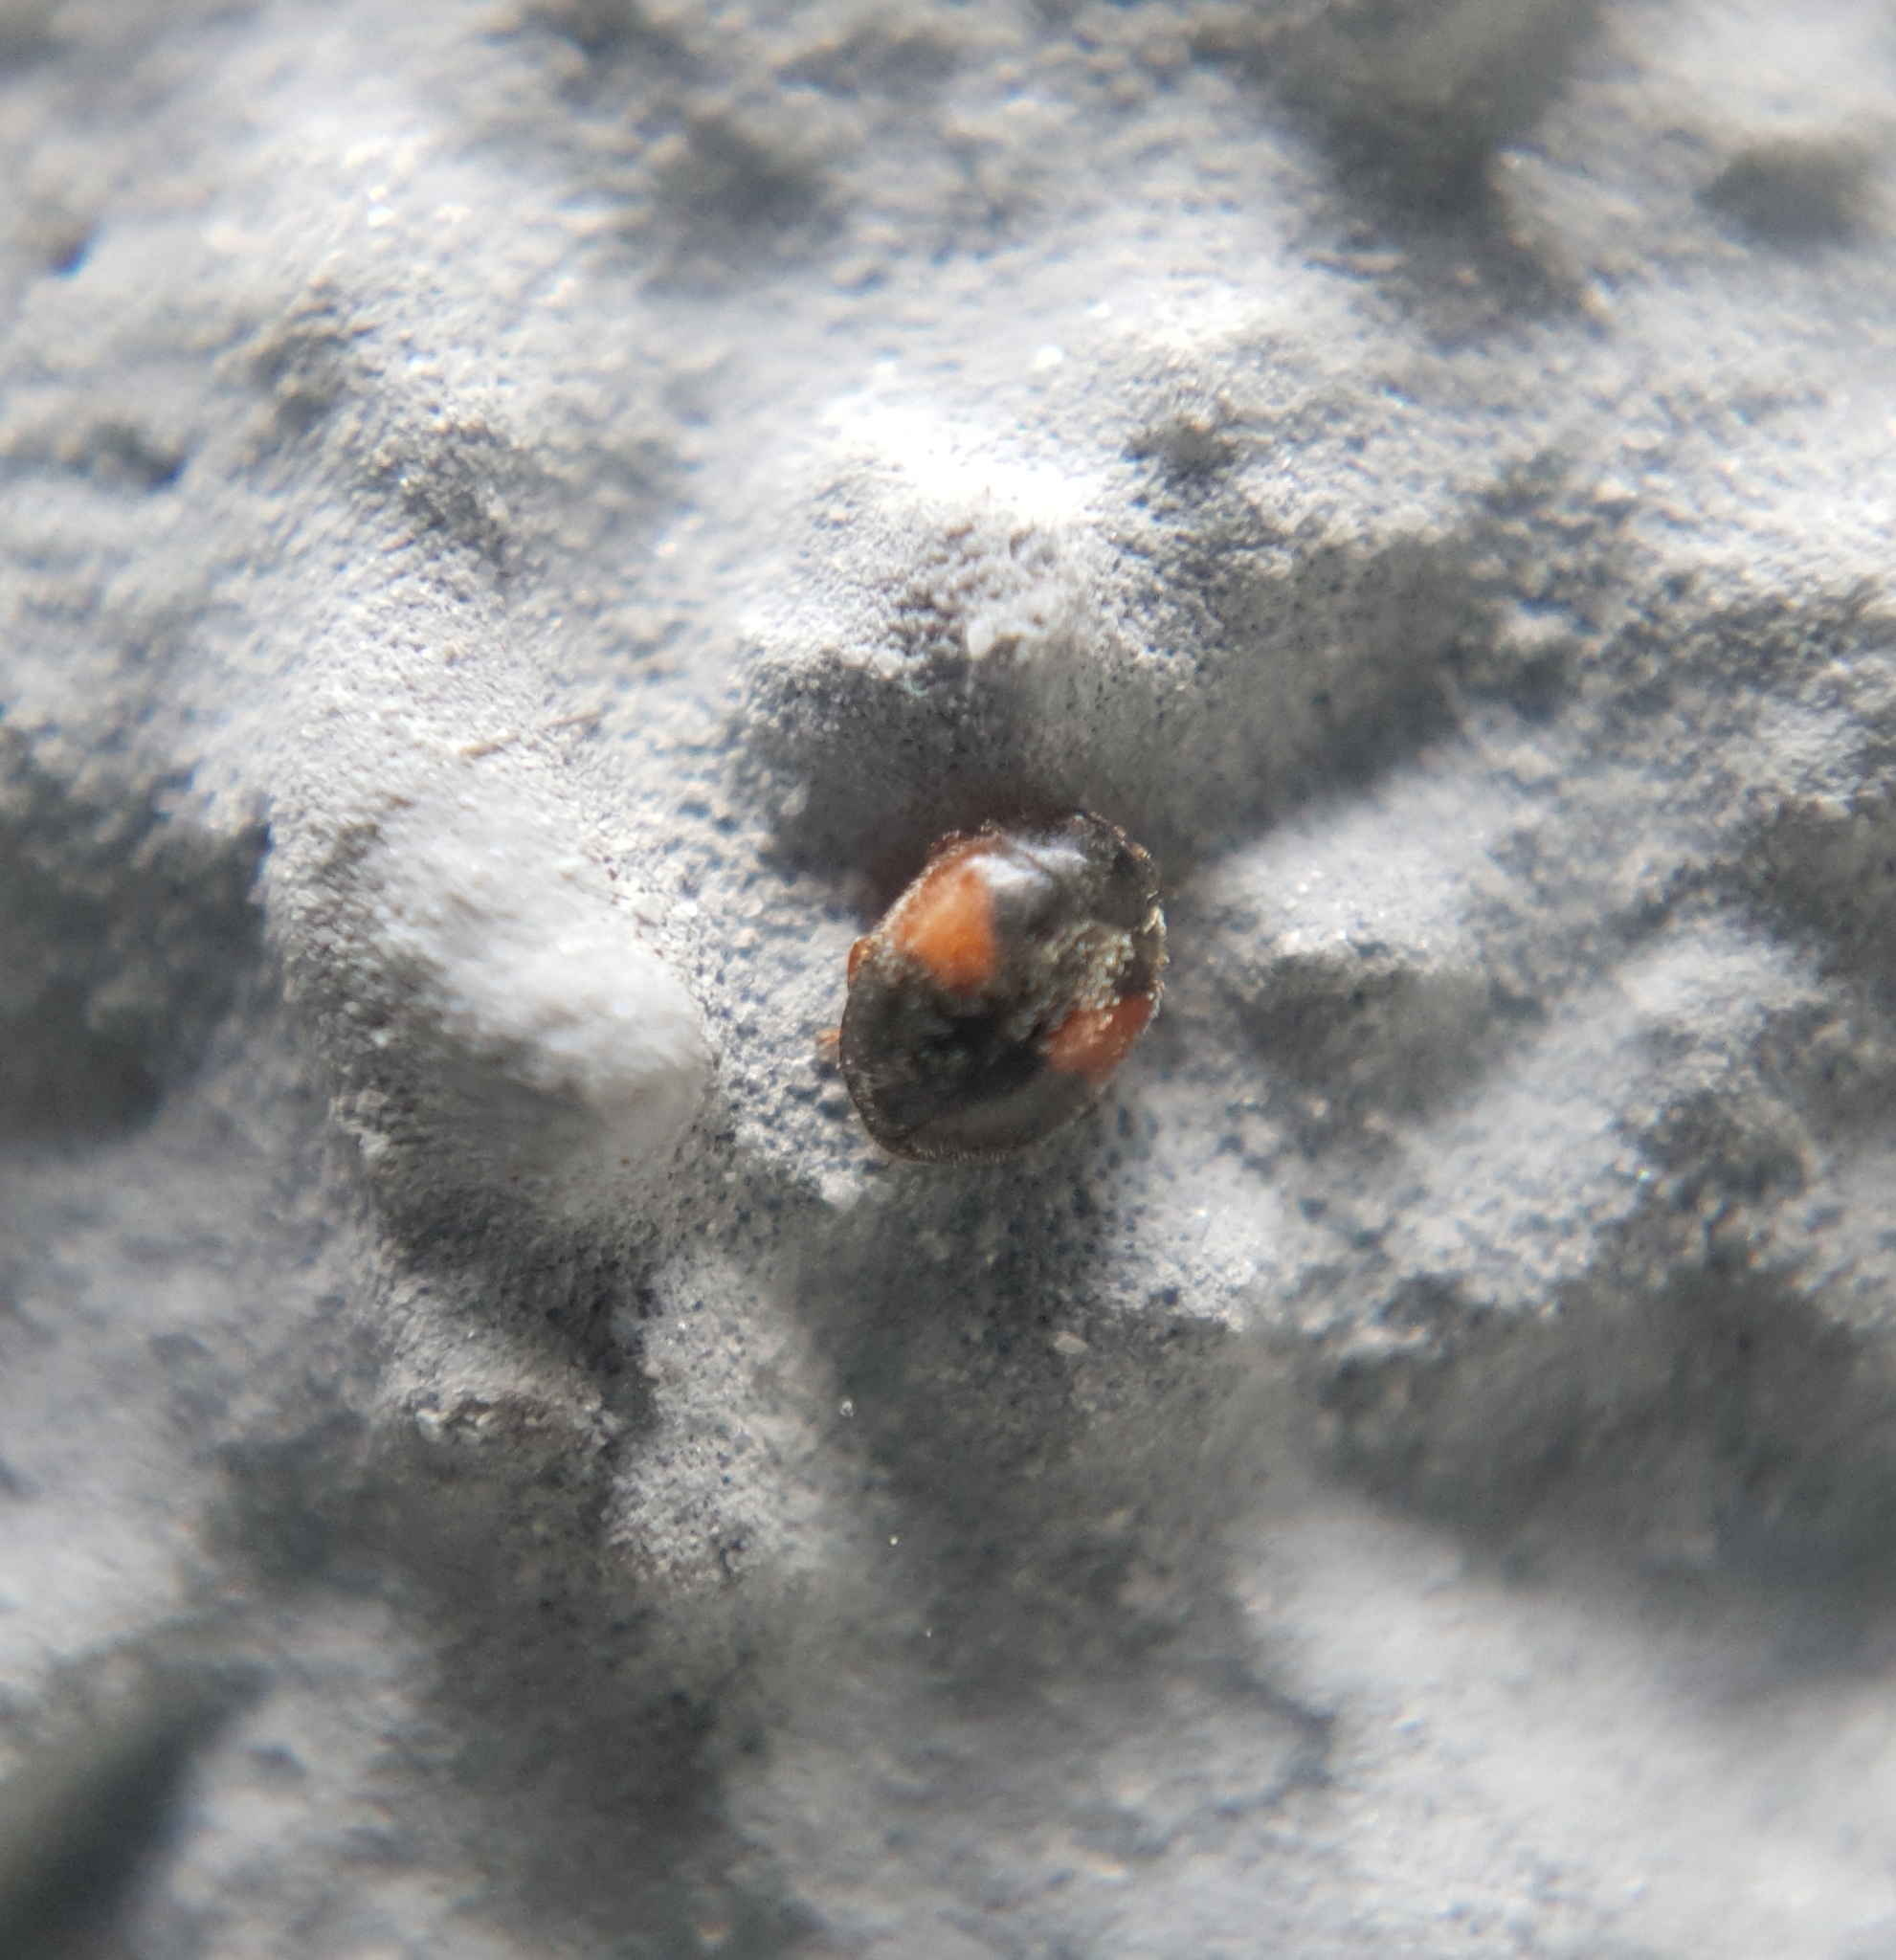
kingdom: Animalia
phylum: Arthropoda
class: Insecta
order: Coleoptera
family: Coccinellidae
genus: Scymnus
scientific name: Scymnus interruptus
